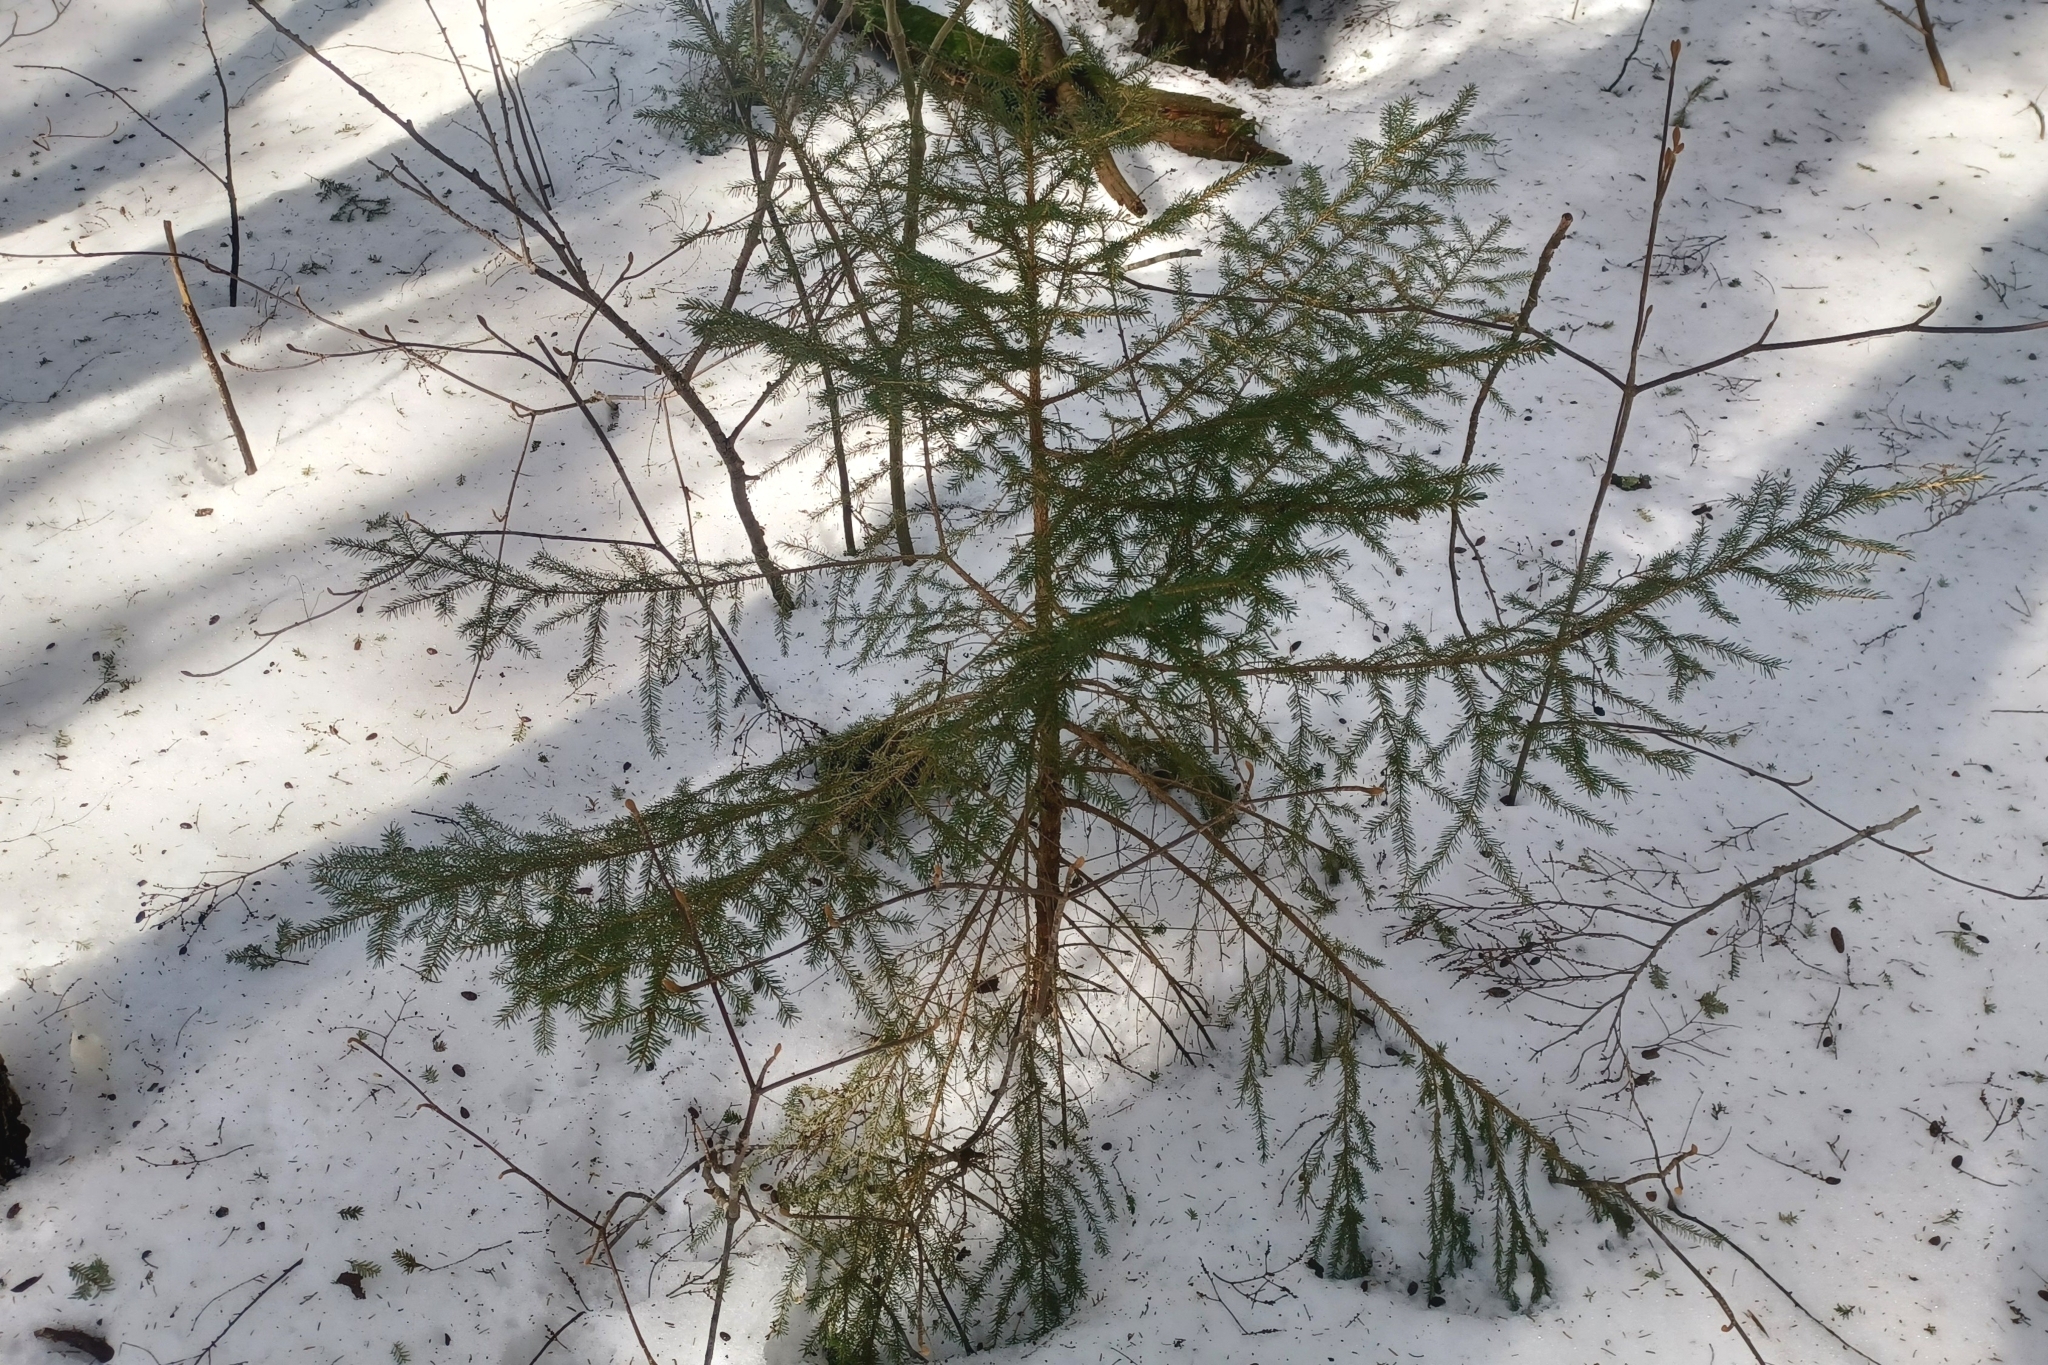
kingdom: Plantae
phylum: Tracheophyta
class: Pinopsida
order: Pinales
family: Pinaceae
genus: Picea
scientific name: Picea rubens
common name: Red spruce
